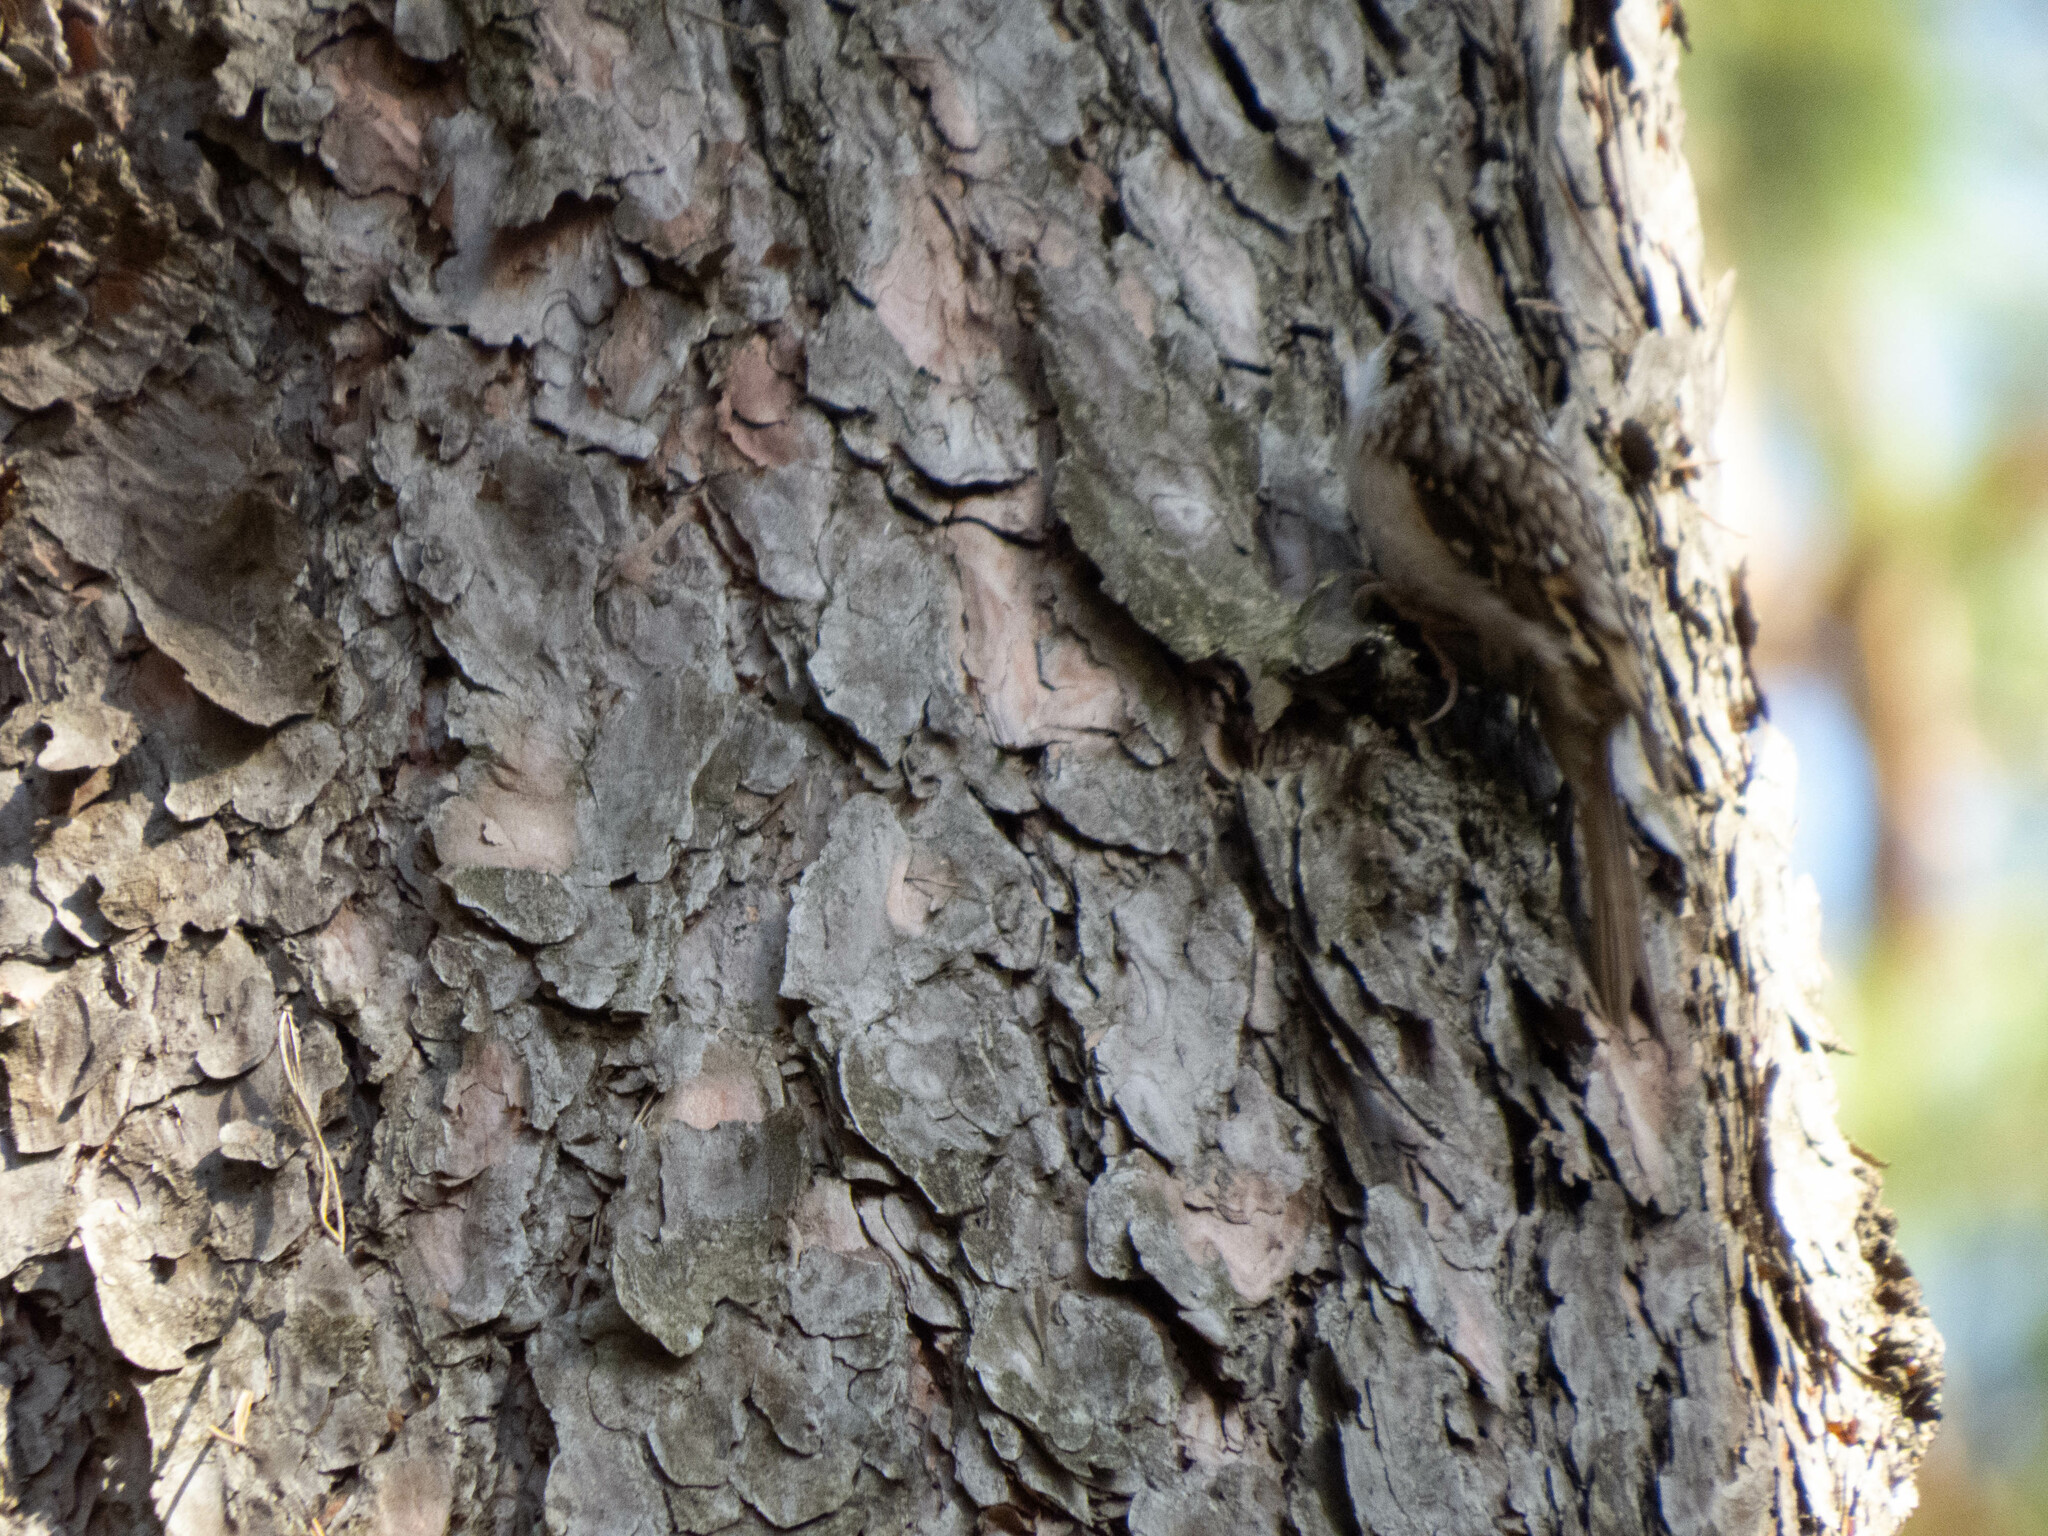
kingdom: Animalia
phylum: Chordata
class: Aves
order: Passeriformes
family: Certhiidae
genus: Certhia
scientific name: Certhia familiaris
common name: Eurasian treecreeper
